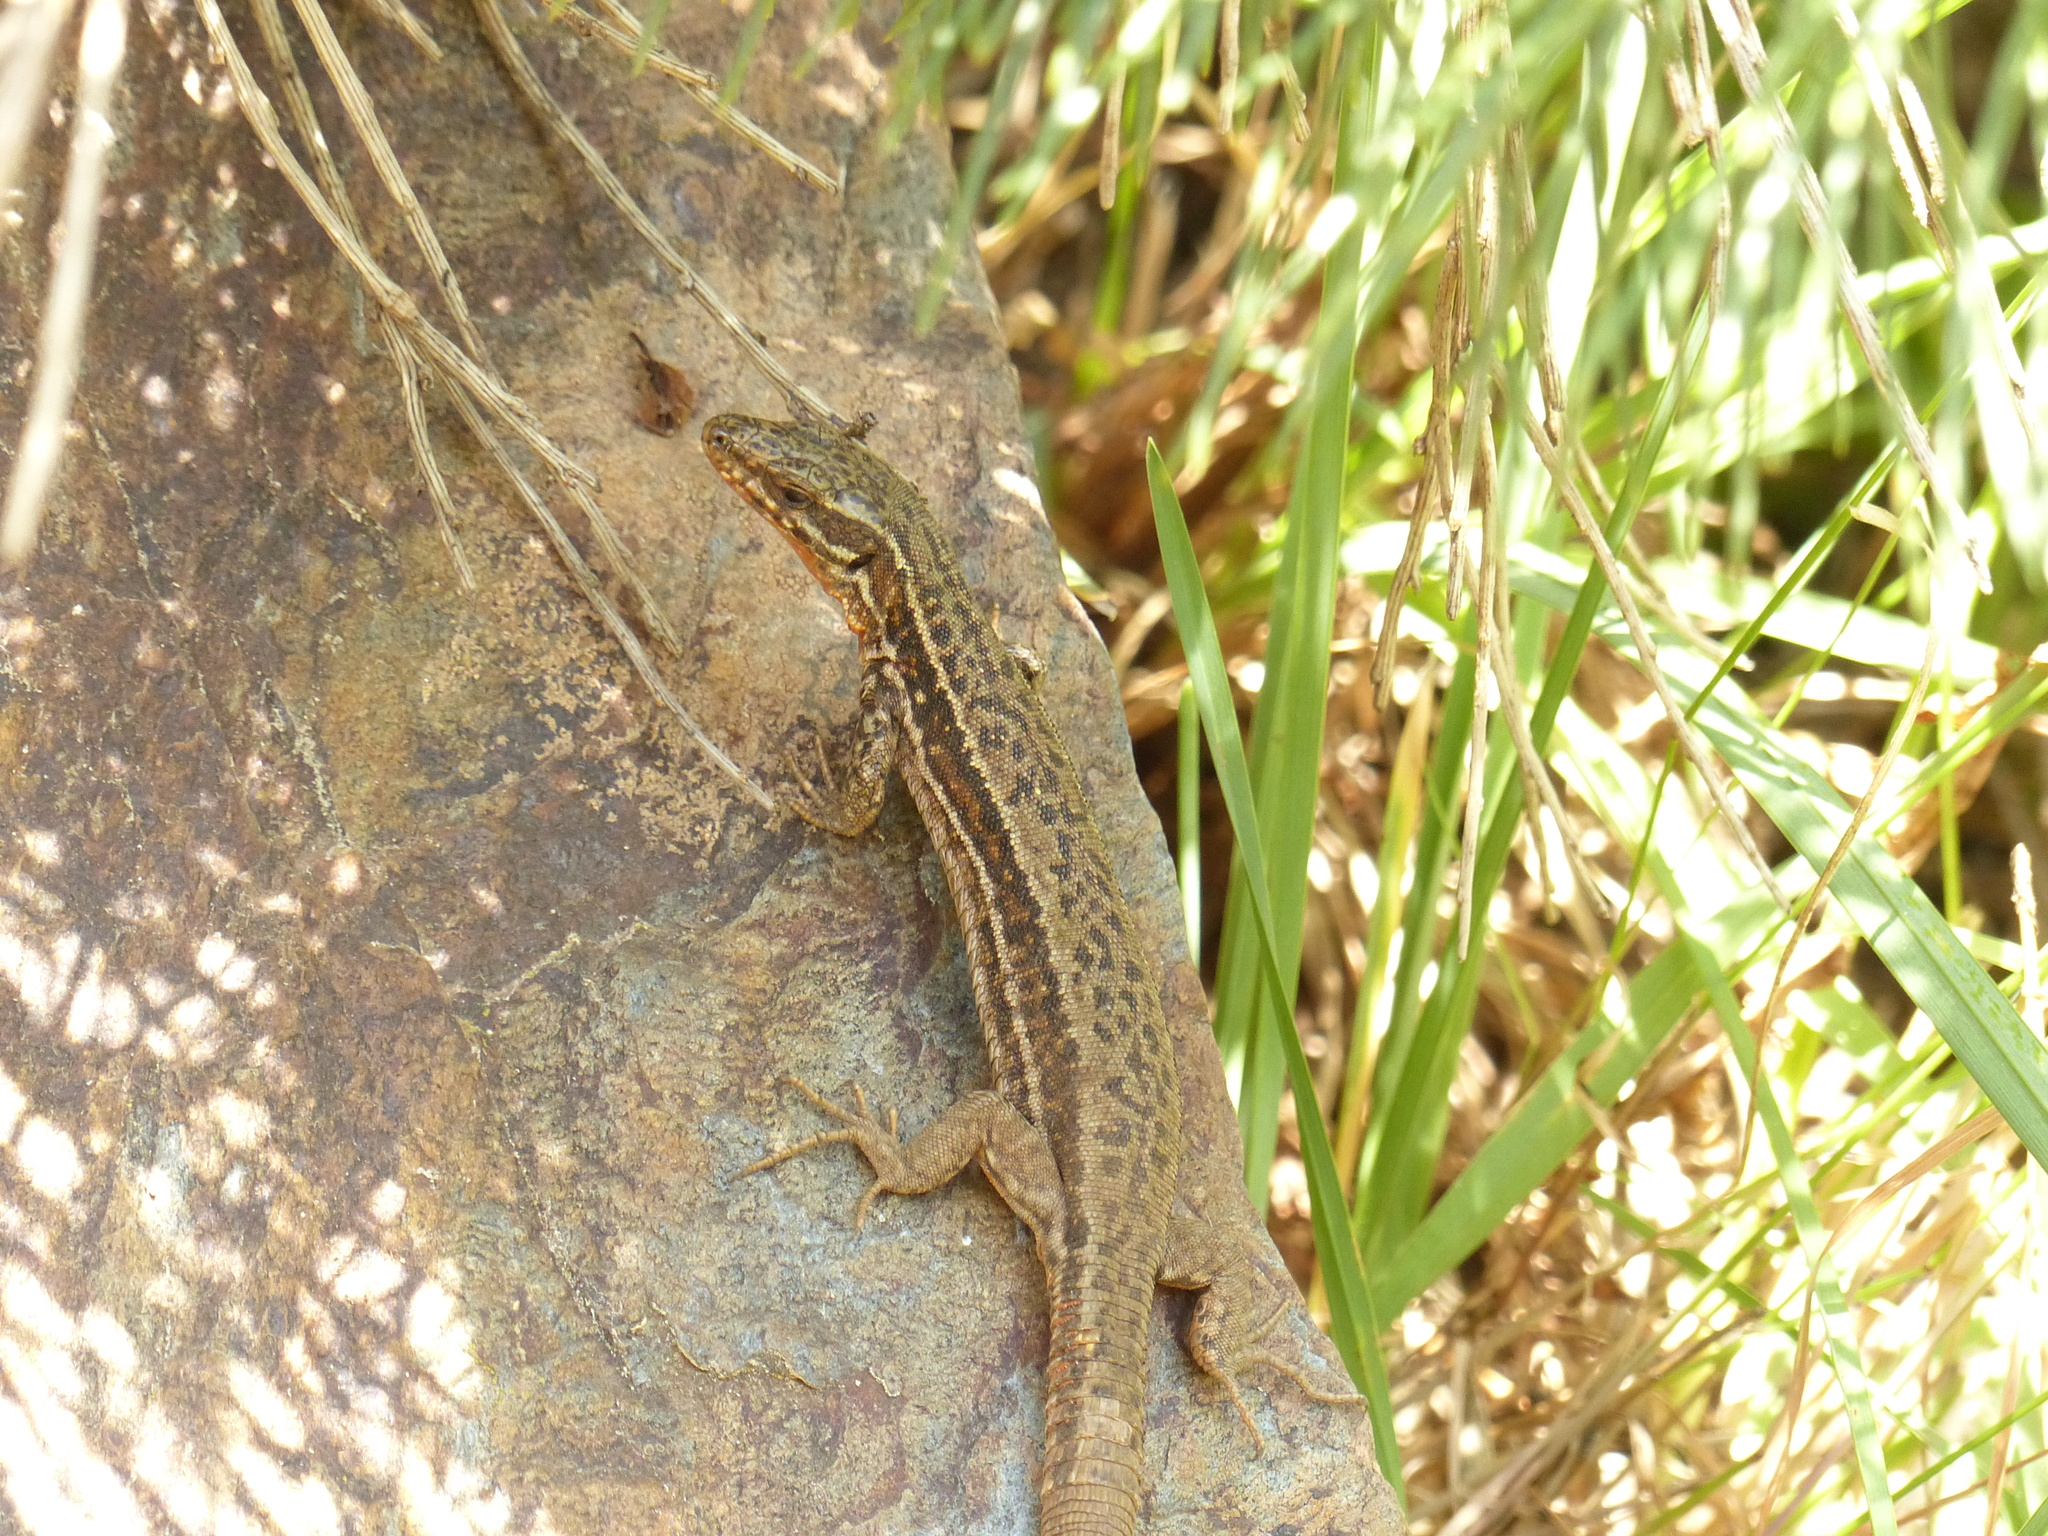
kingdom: Animalia
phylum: Chordata
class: Squamata
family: Lacertidae
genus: Podarcis
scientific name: Podarcis muralis
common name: Common wall lizard
